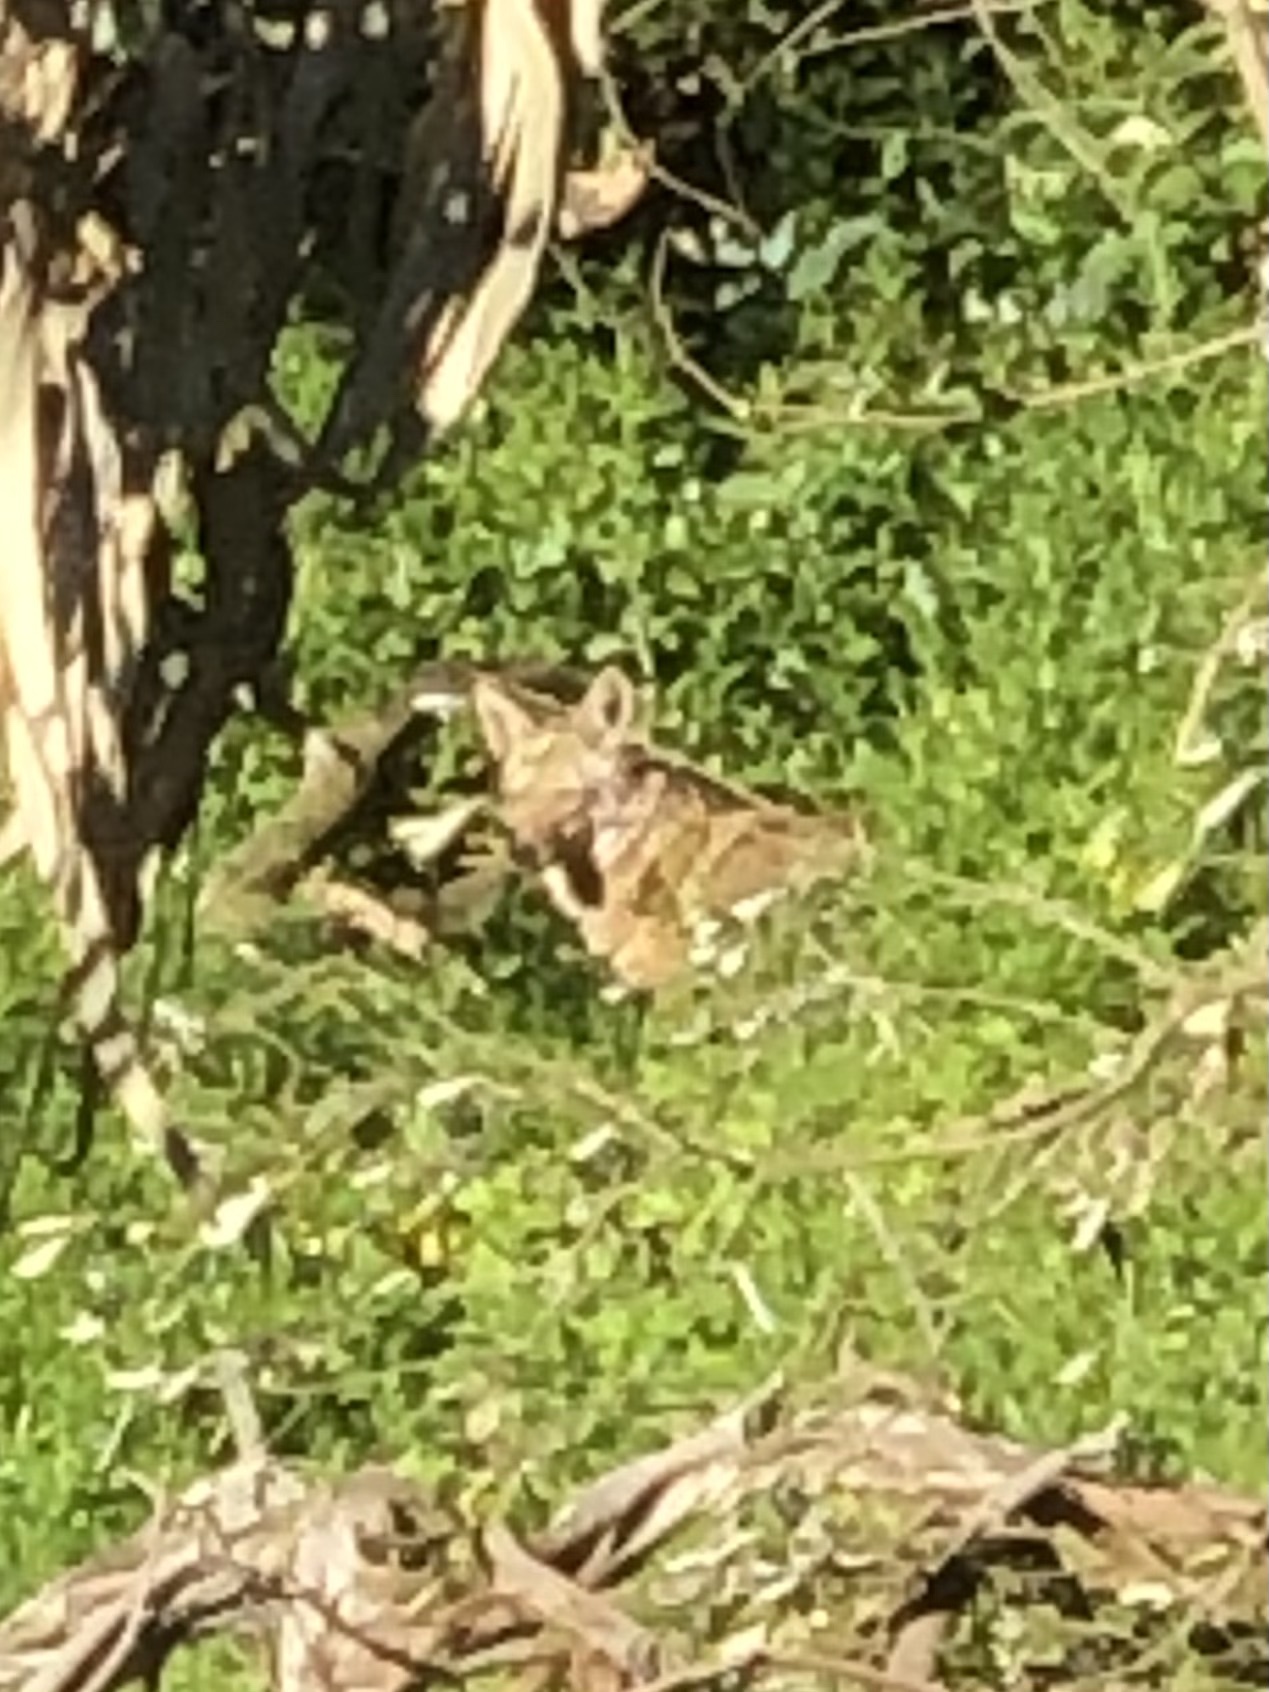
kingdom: Animalia
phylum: Chordata
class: Mammalia
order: Carnivora
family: Canidae
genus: Canis
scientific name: Canis latrans
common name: Coyote
